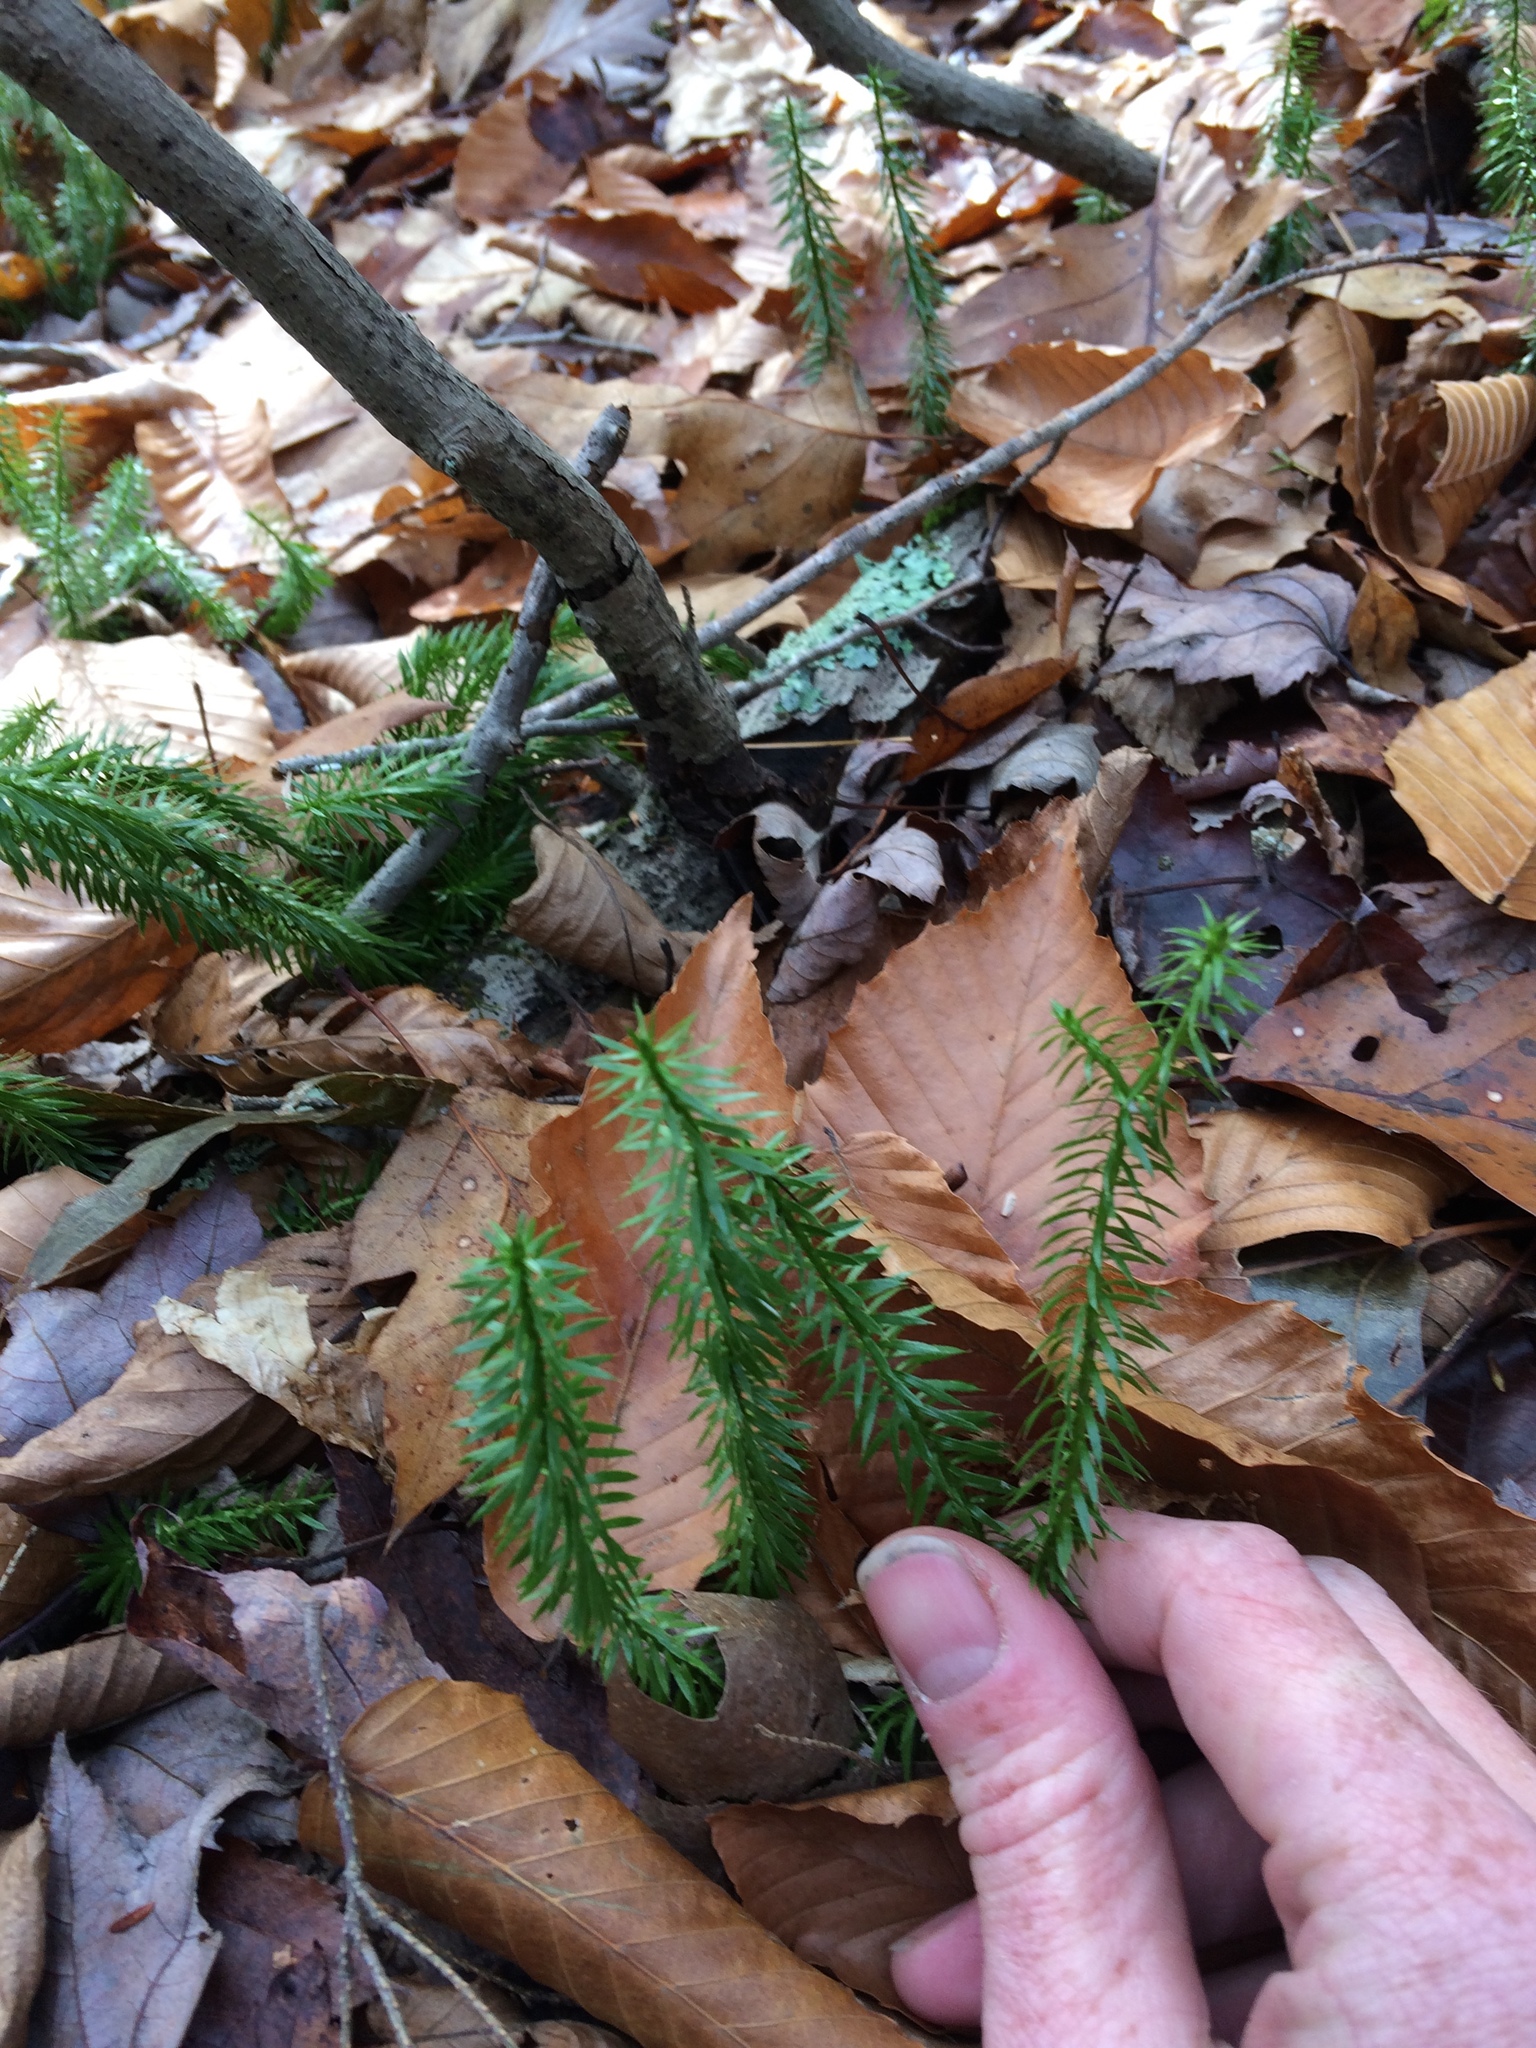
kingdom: Plantae
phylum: Tracheophyta
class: Lycopodiopsida
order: Lycopodiales
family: Lycopodiaceae
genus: Spinulum
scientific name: Spinulum annotinum
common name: Interrupted club-moss
